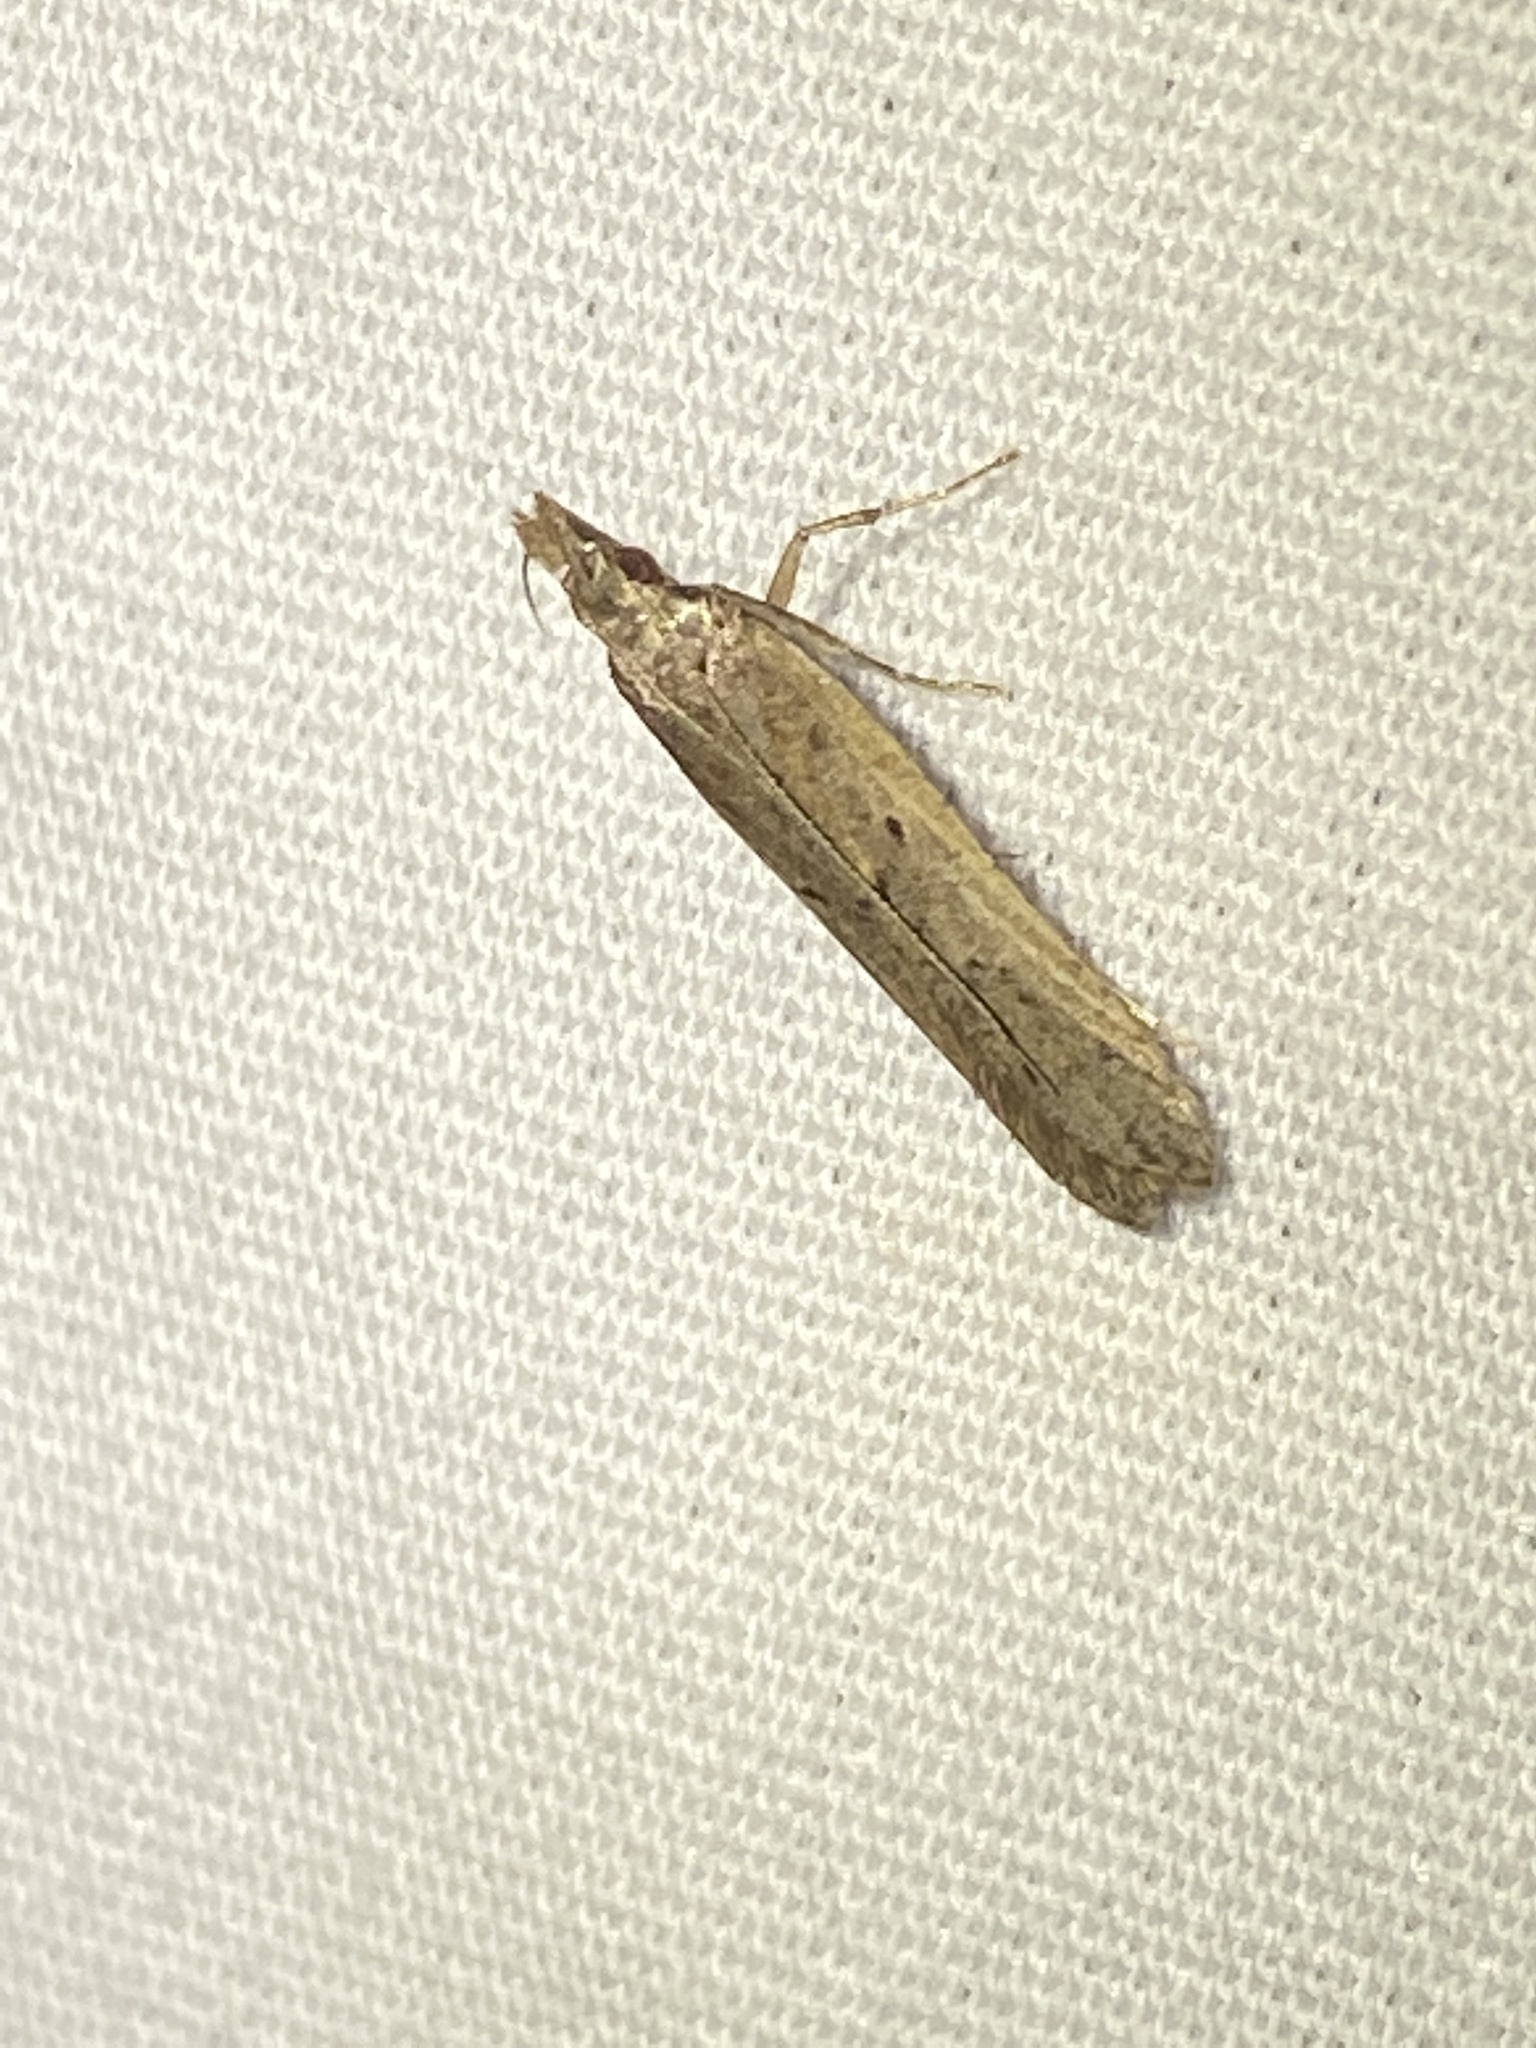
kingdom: Animalia
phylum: Arthropoda
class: Insecta
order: Lepidoptera
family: Gelechiidae
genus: Dichomeris
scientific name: Dichomeris ligulella
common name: Moth
